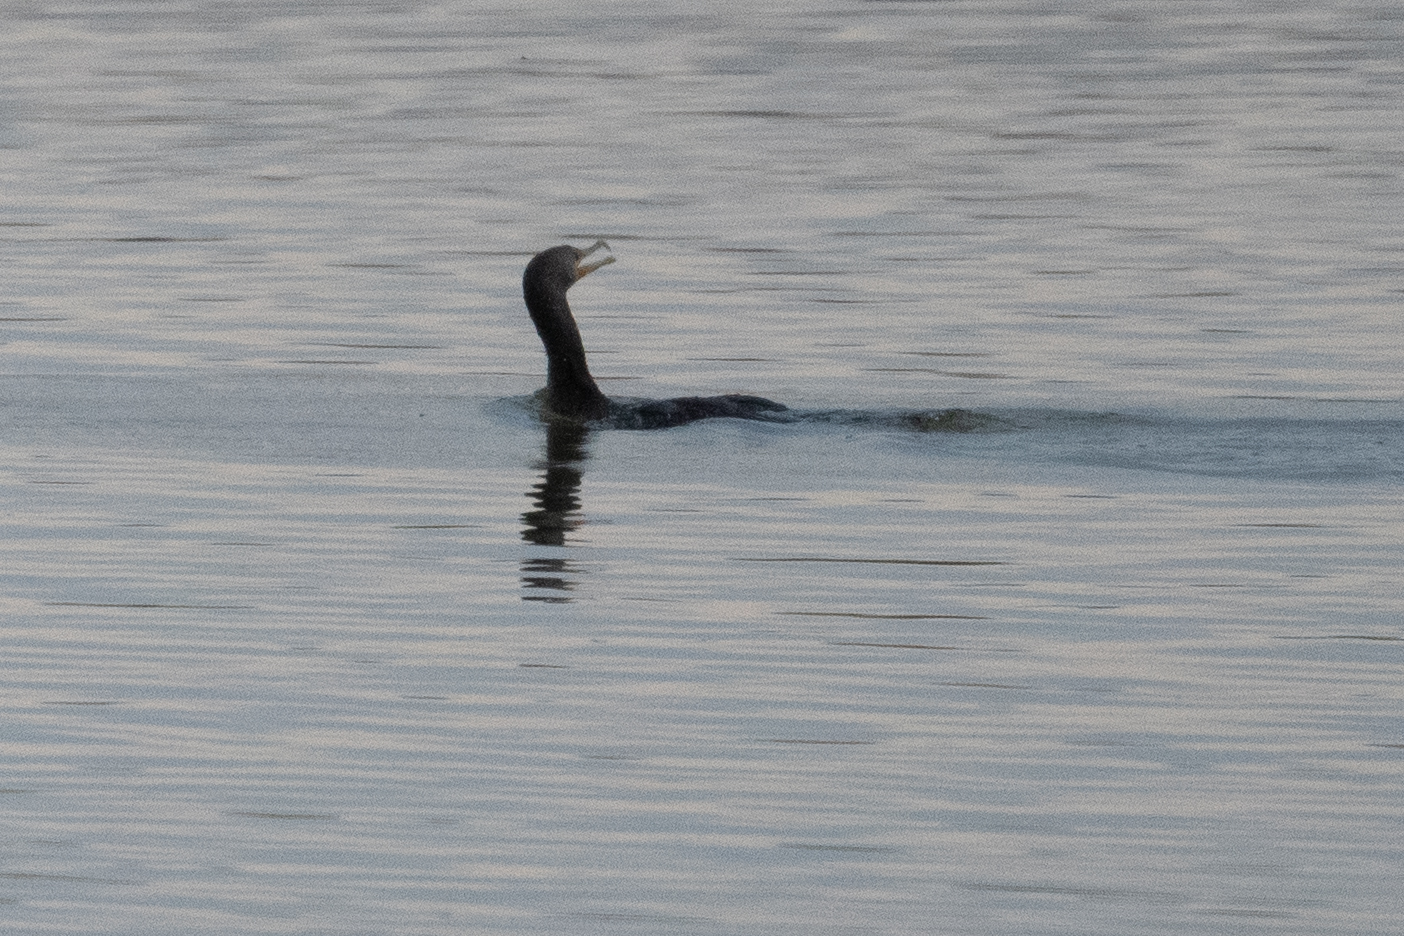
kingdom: Animalia
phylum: Chordata
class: Aves
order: Suliformes
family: Phalacrocoracidae
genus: Phalacrocorax
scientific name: Phalacrocorax auritus
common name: Double-crested cormorant
